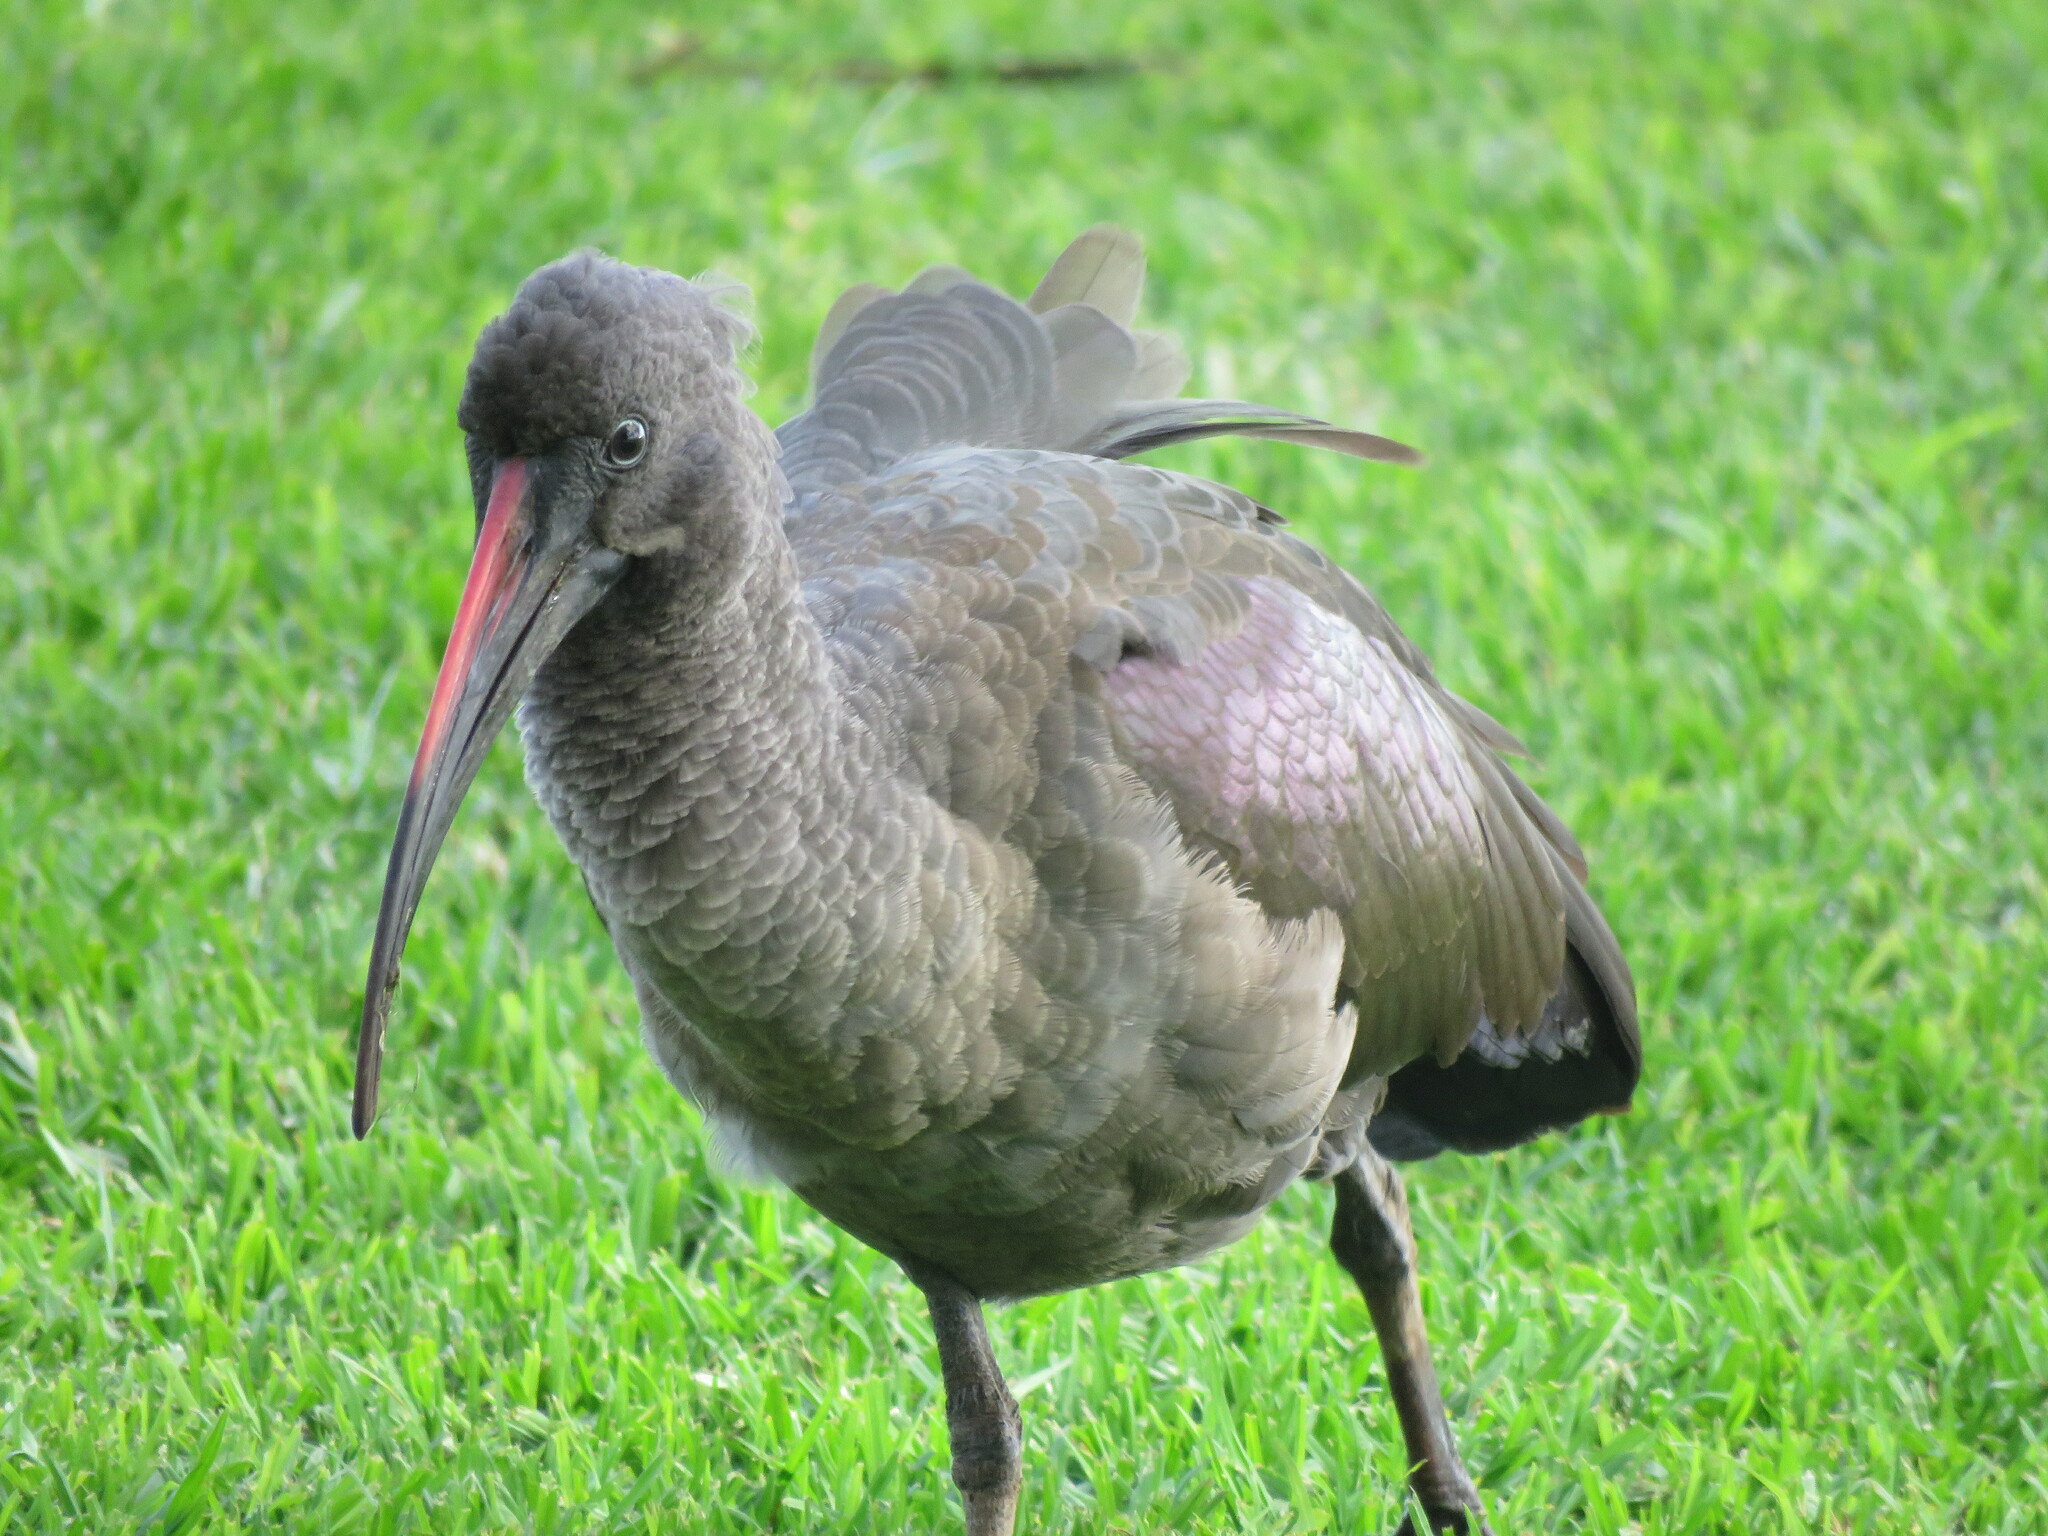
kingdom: Animalia
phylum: Chordata
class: Aves
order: Pelecaniformes
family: Threskiornithidae
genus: Bostrychia
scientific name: Bostrychia hagedash
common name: Hadada ibis
